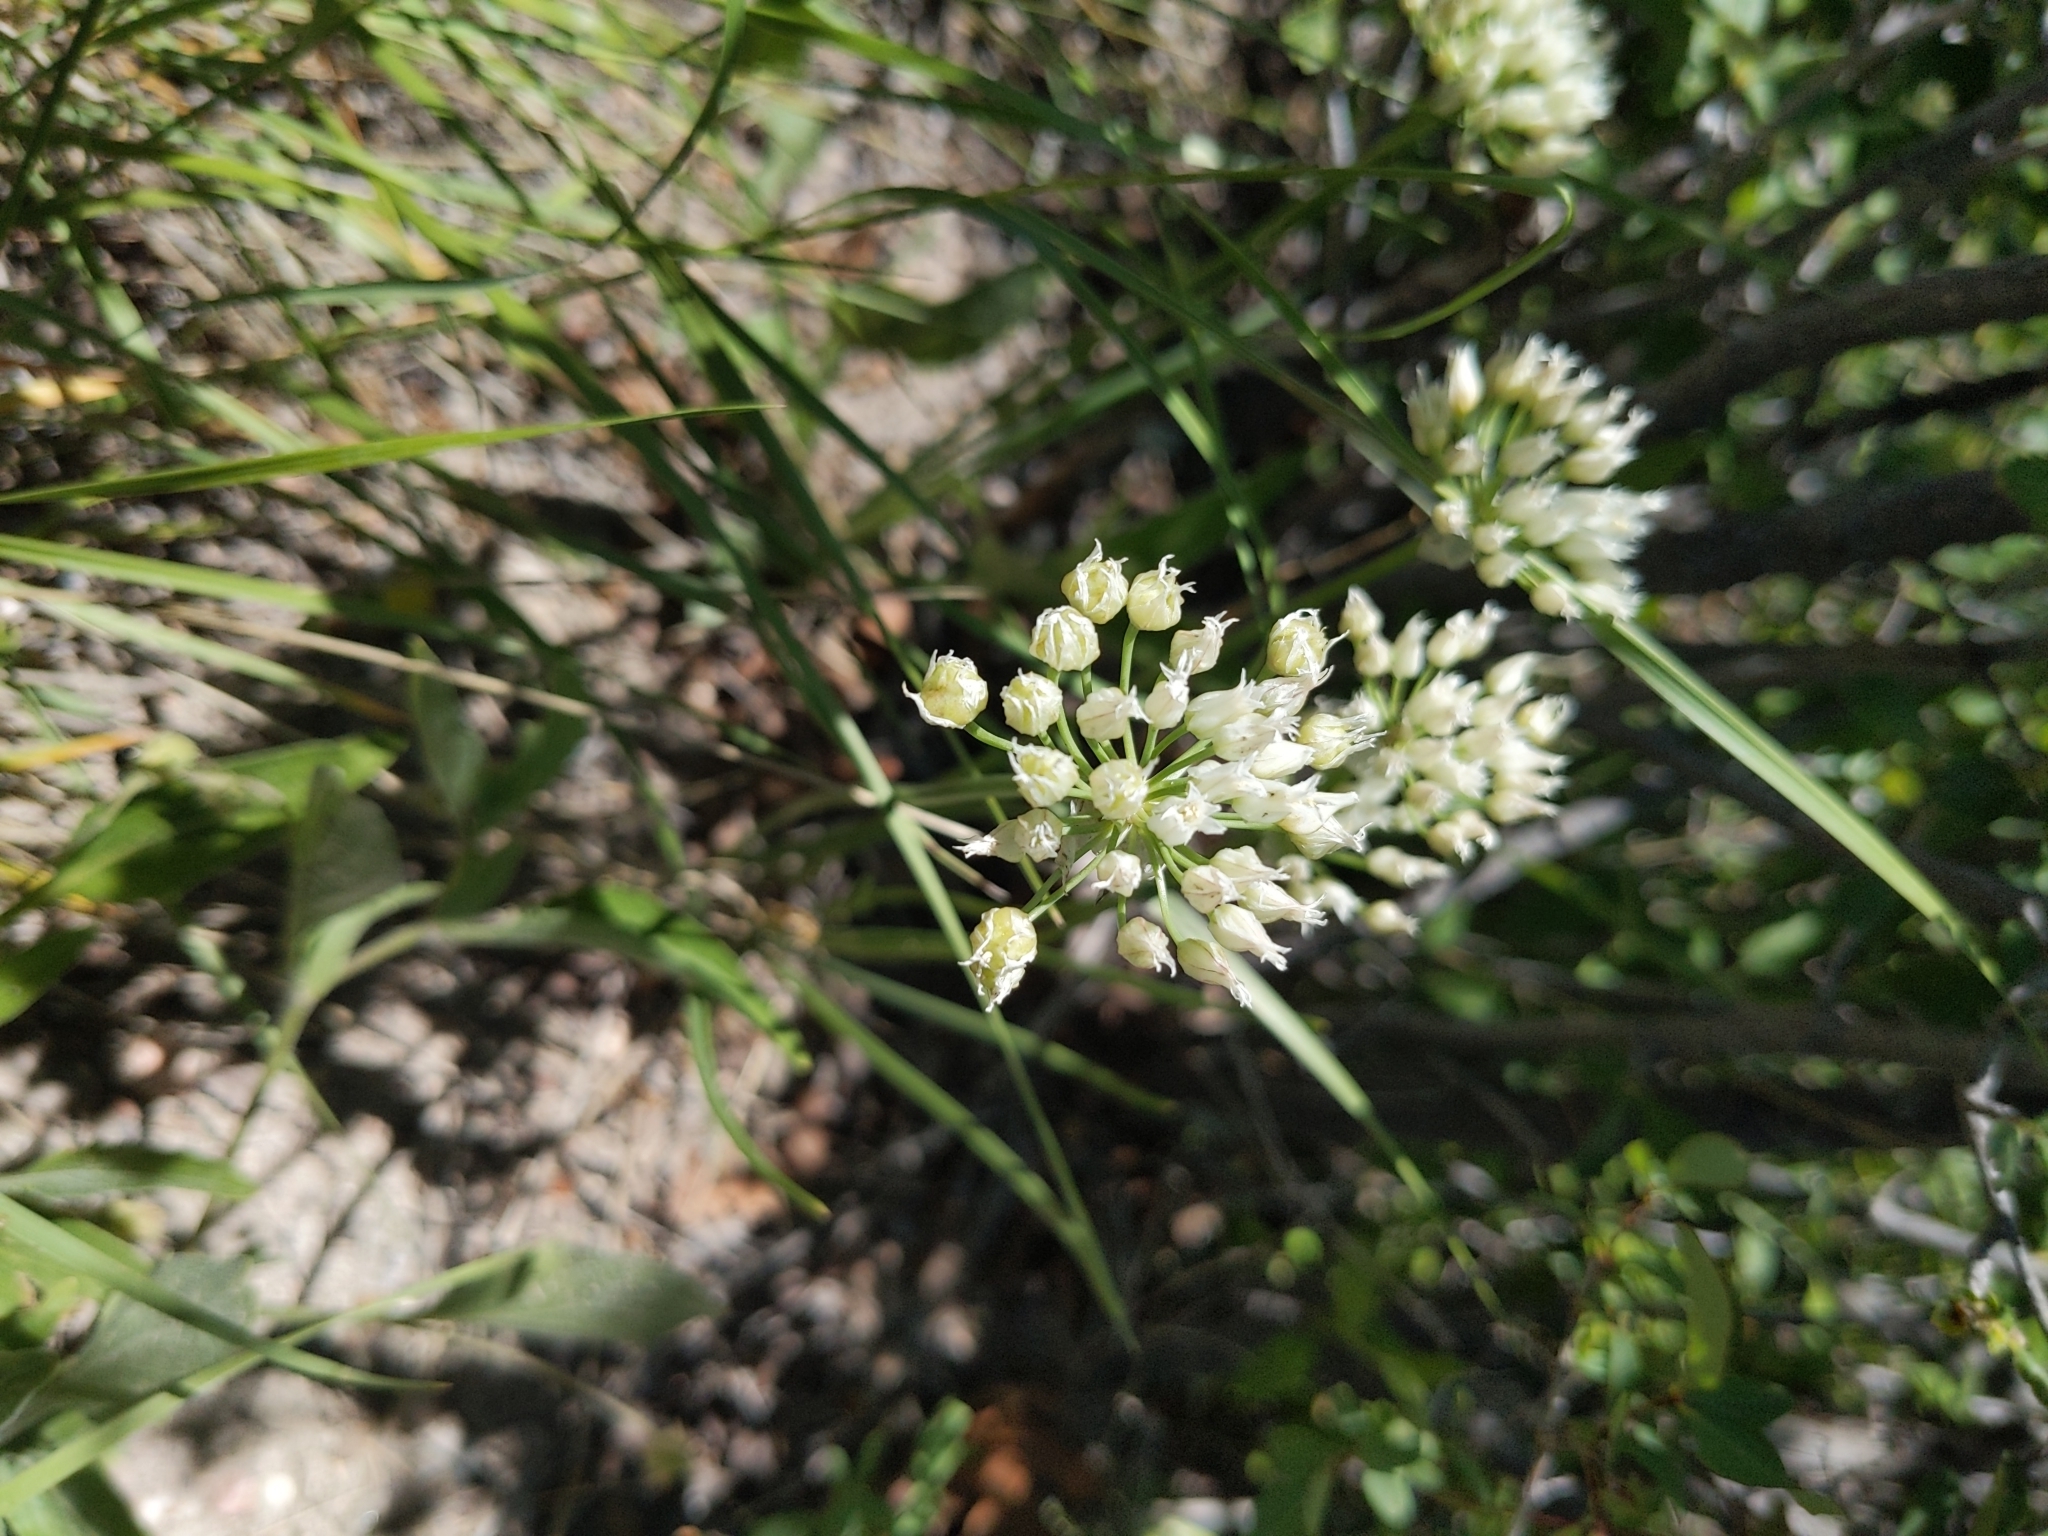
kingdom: Plantae
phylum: Tracheophyta
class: Liliopsida
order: Asparagales
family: Amaryllidaceae
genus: Allium
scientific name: Allium cernuum
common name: Nodding onion
